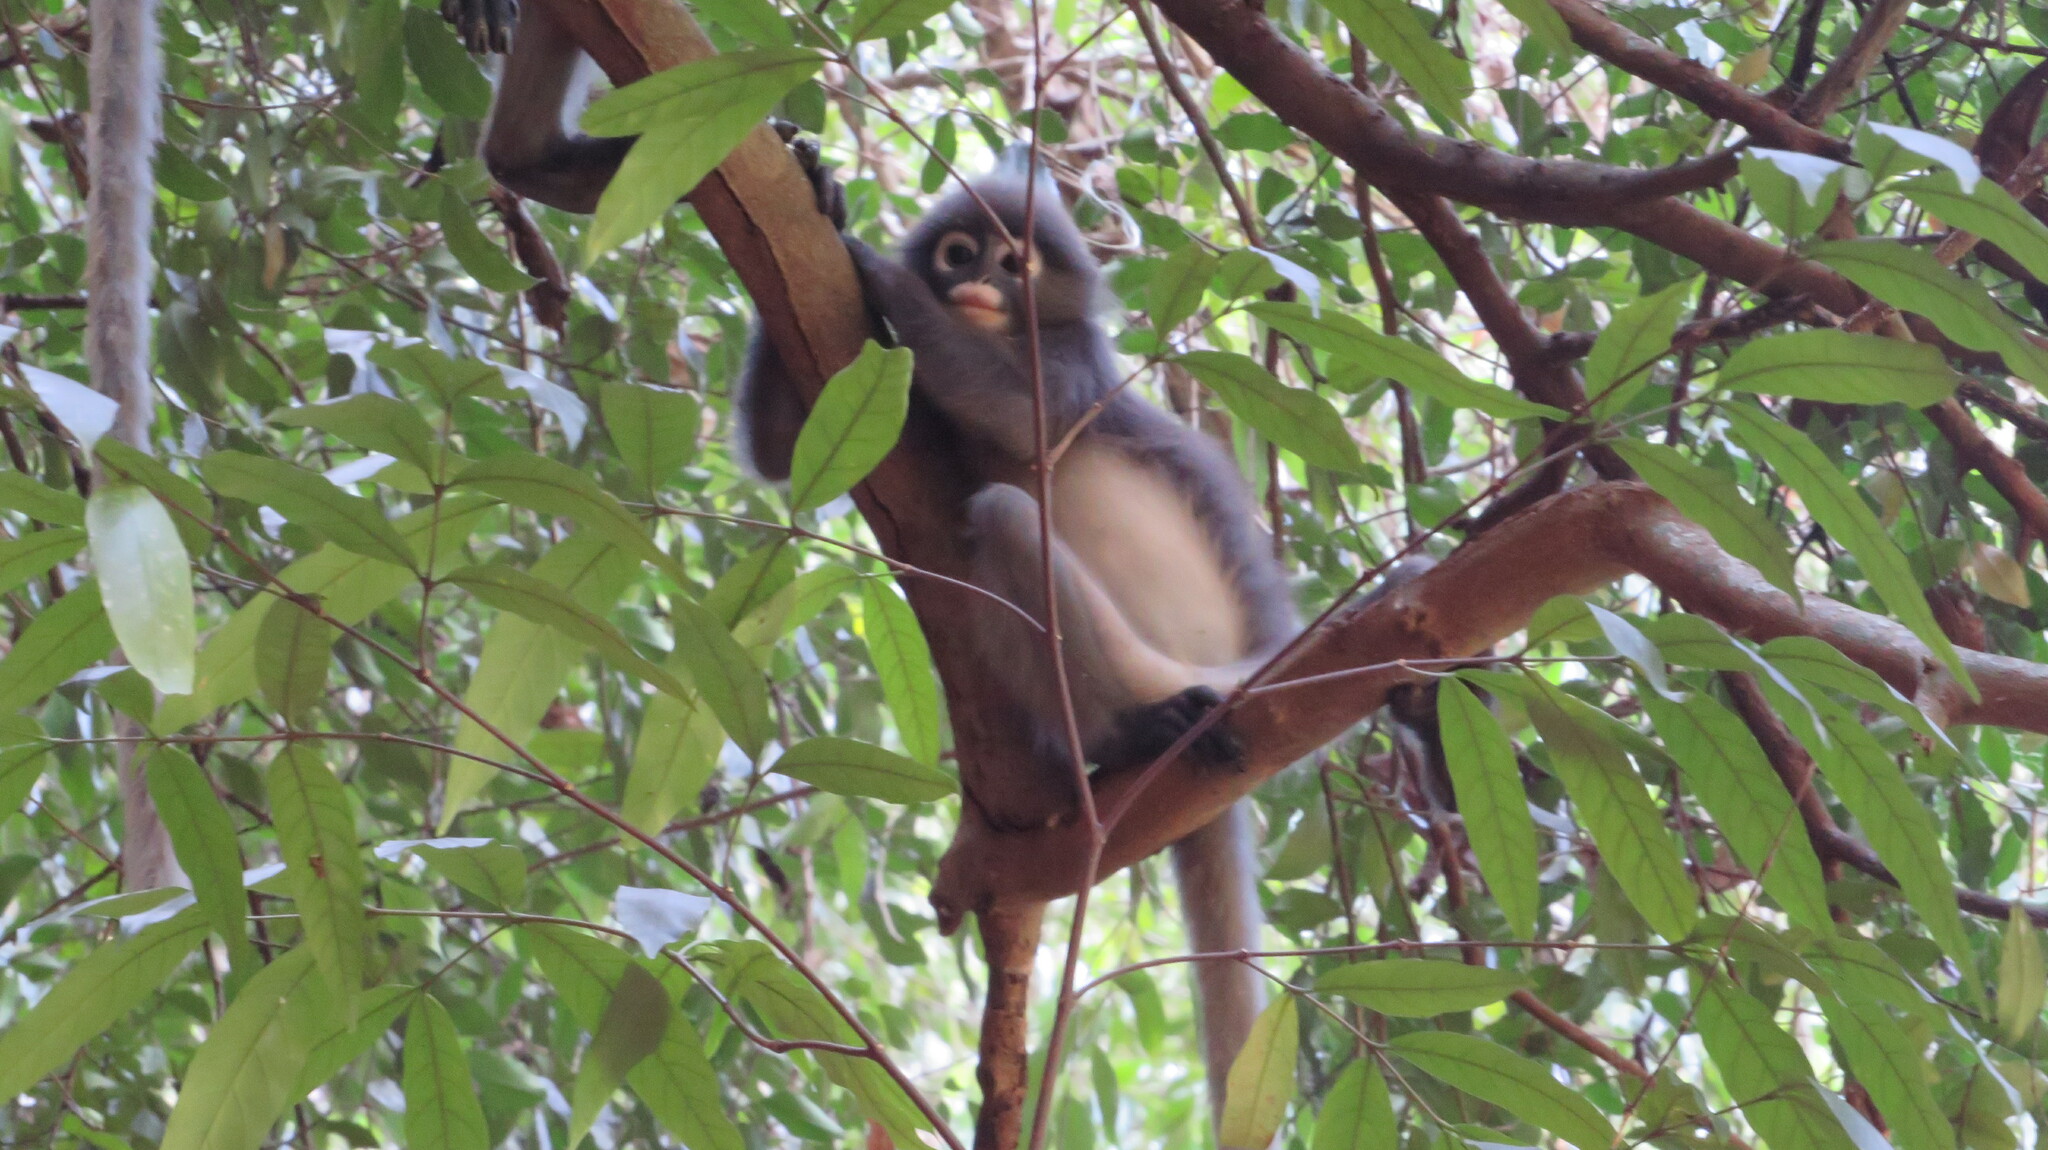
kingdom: Animalia
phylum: Chordata
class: Mammalia
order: Primates
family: Cercopithecidae
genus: Trachypithecus
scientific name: Trachypithecus obscurus
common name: Dusky leaf-monkey
